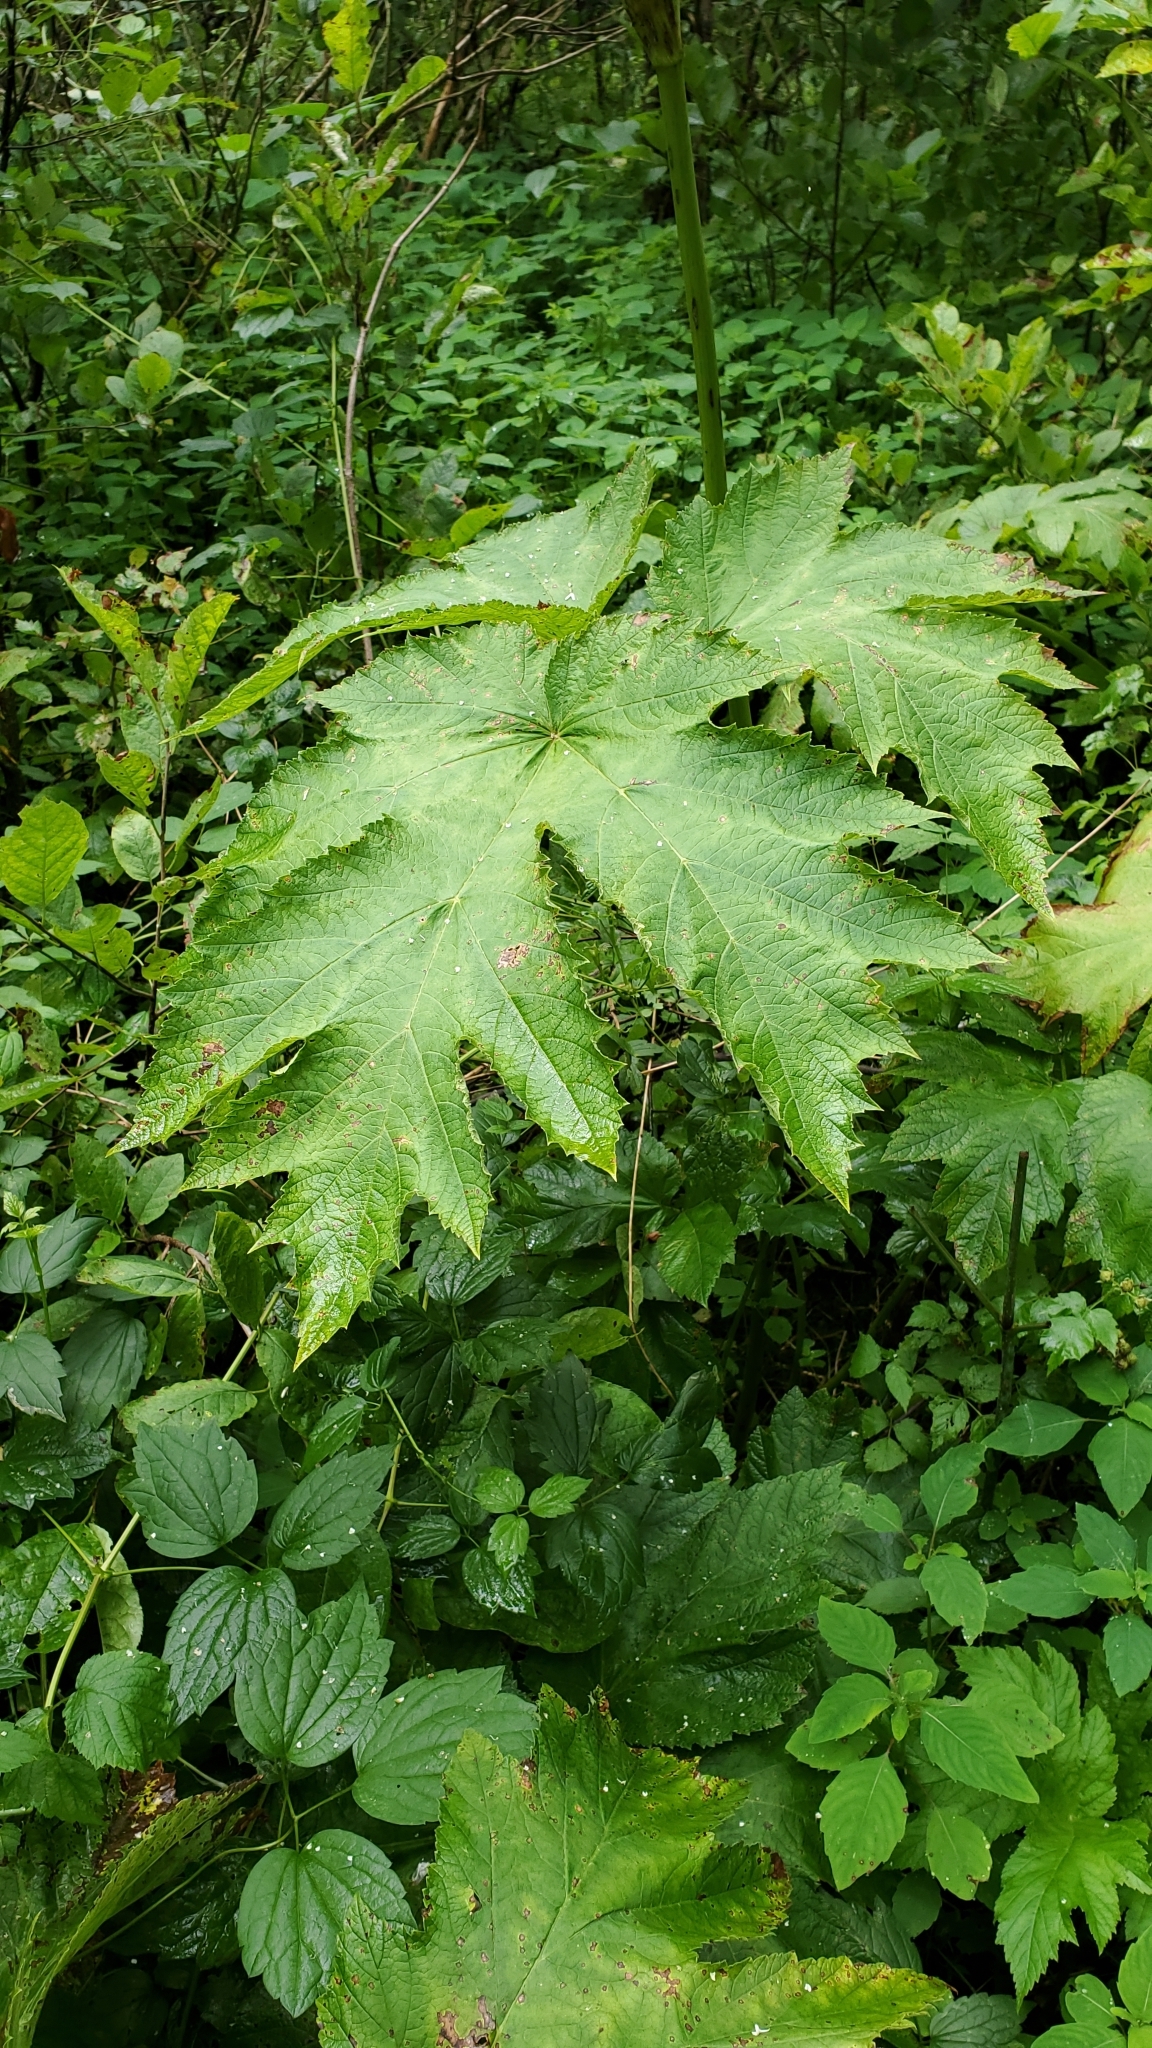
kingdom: Plantae
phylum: Tracheophyta
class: Magnoliopsida
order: Apiales
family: Apiaceae
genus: Heracleum
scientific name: Heracleum maximum
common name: American cow parsnip
